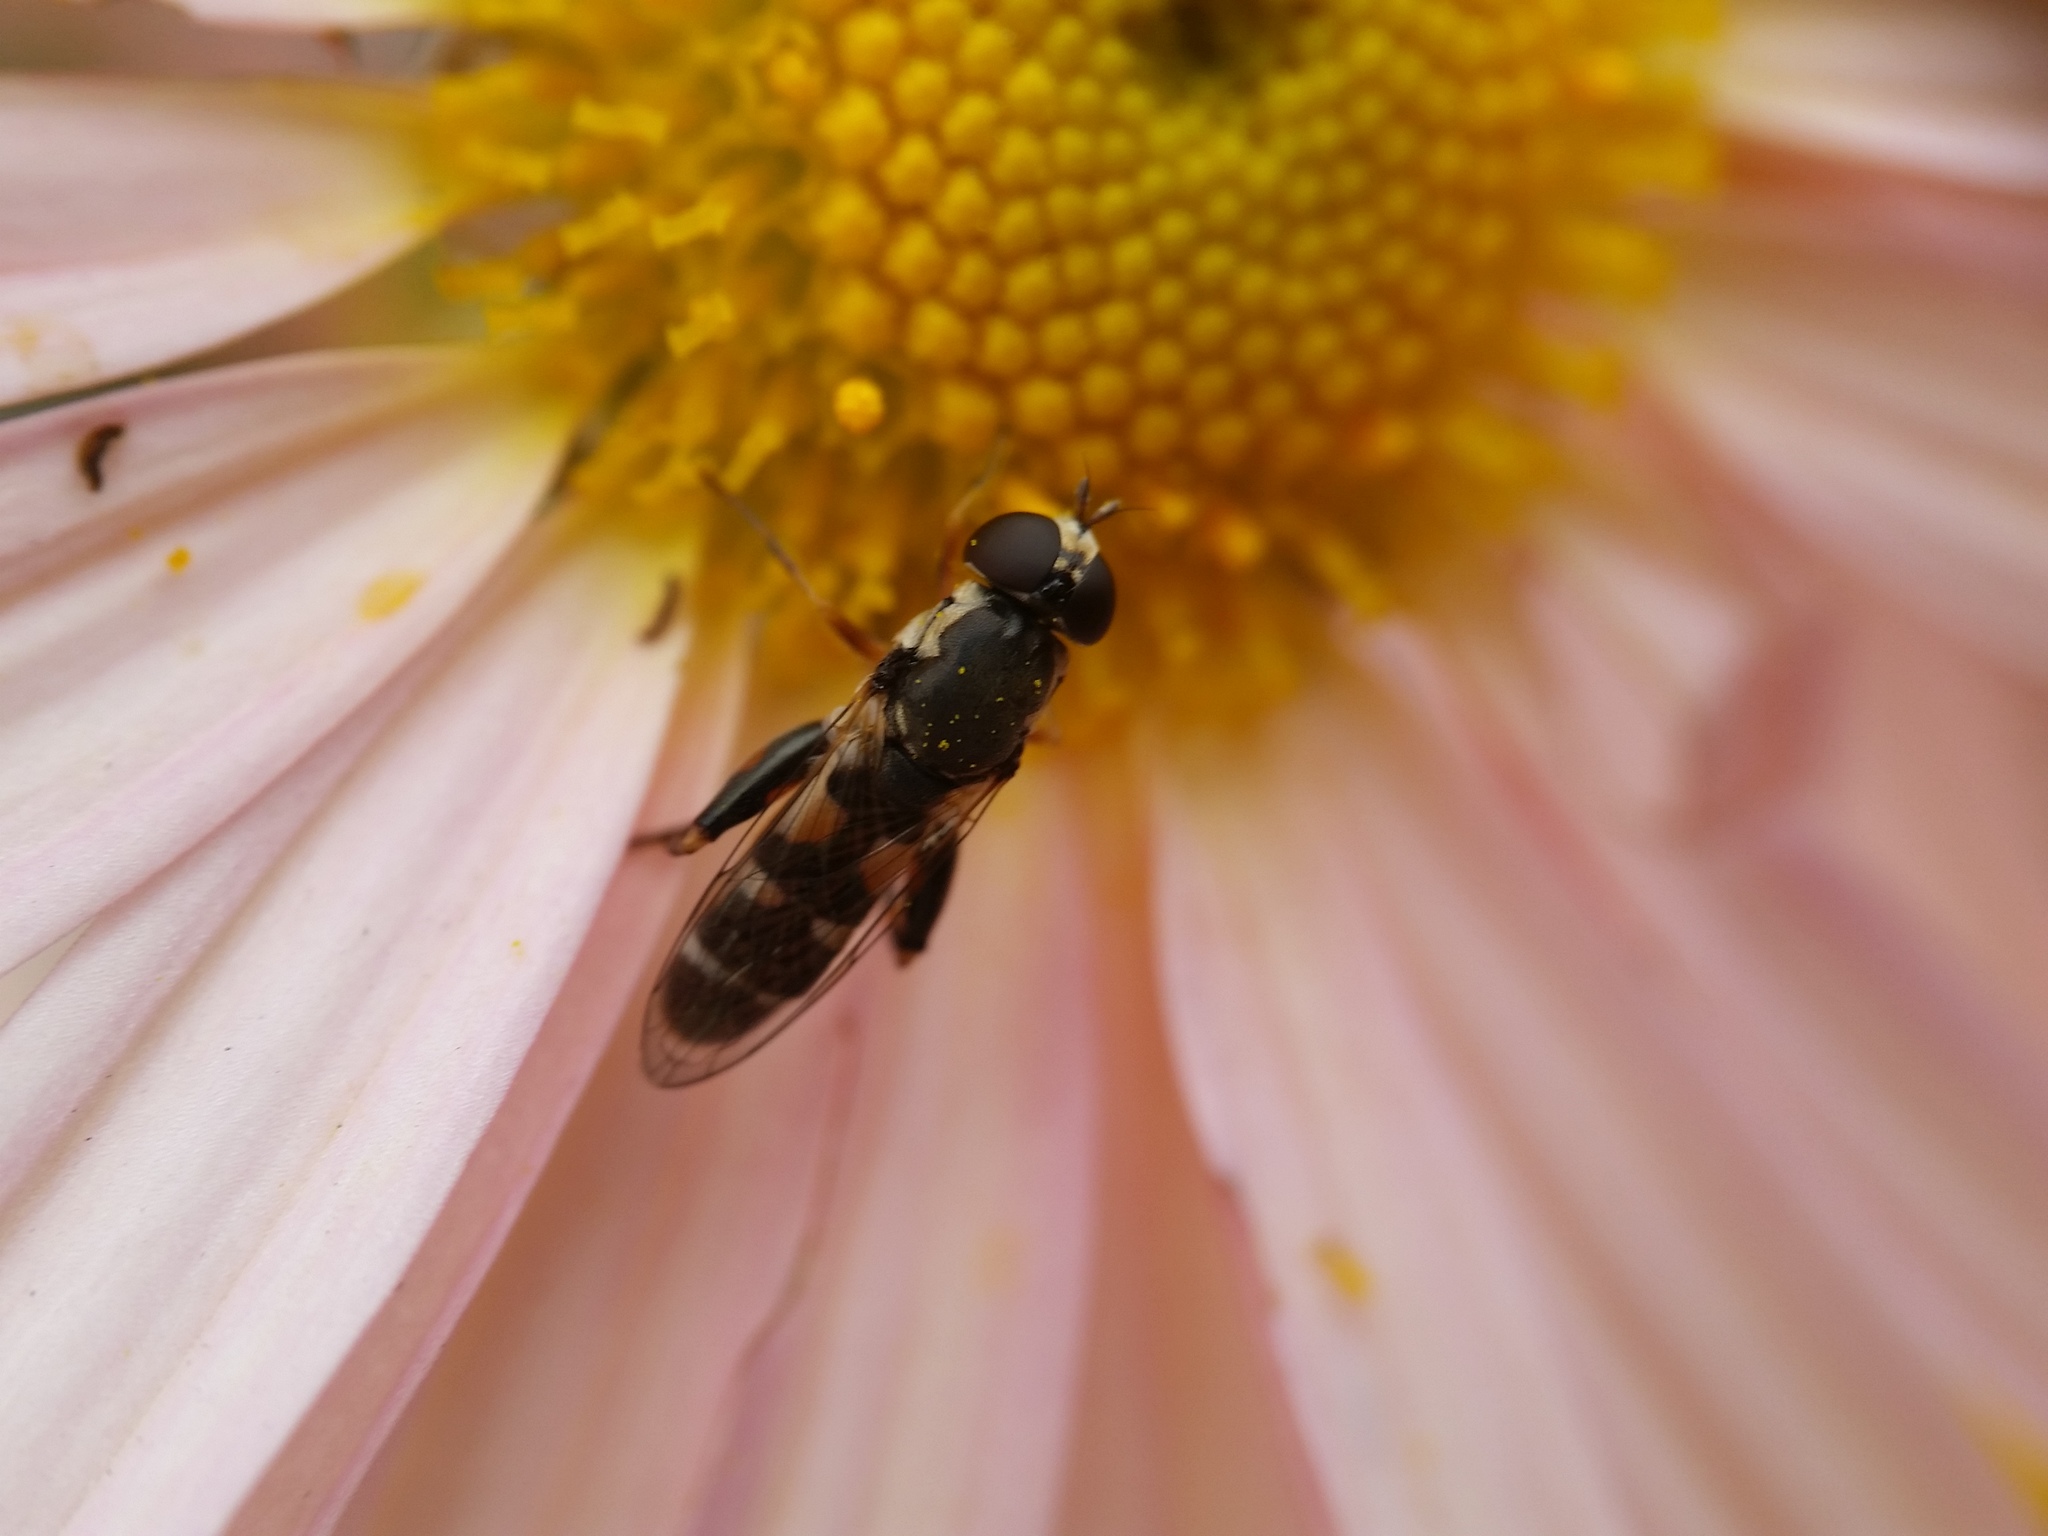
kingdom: Animalia
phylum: Arthropoda
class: Insecta
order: Diptera
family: Syrphidae
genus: Syritta
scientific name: Syritta pipiens
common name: Hover fly
